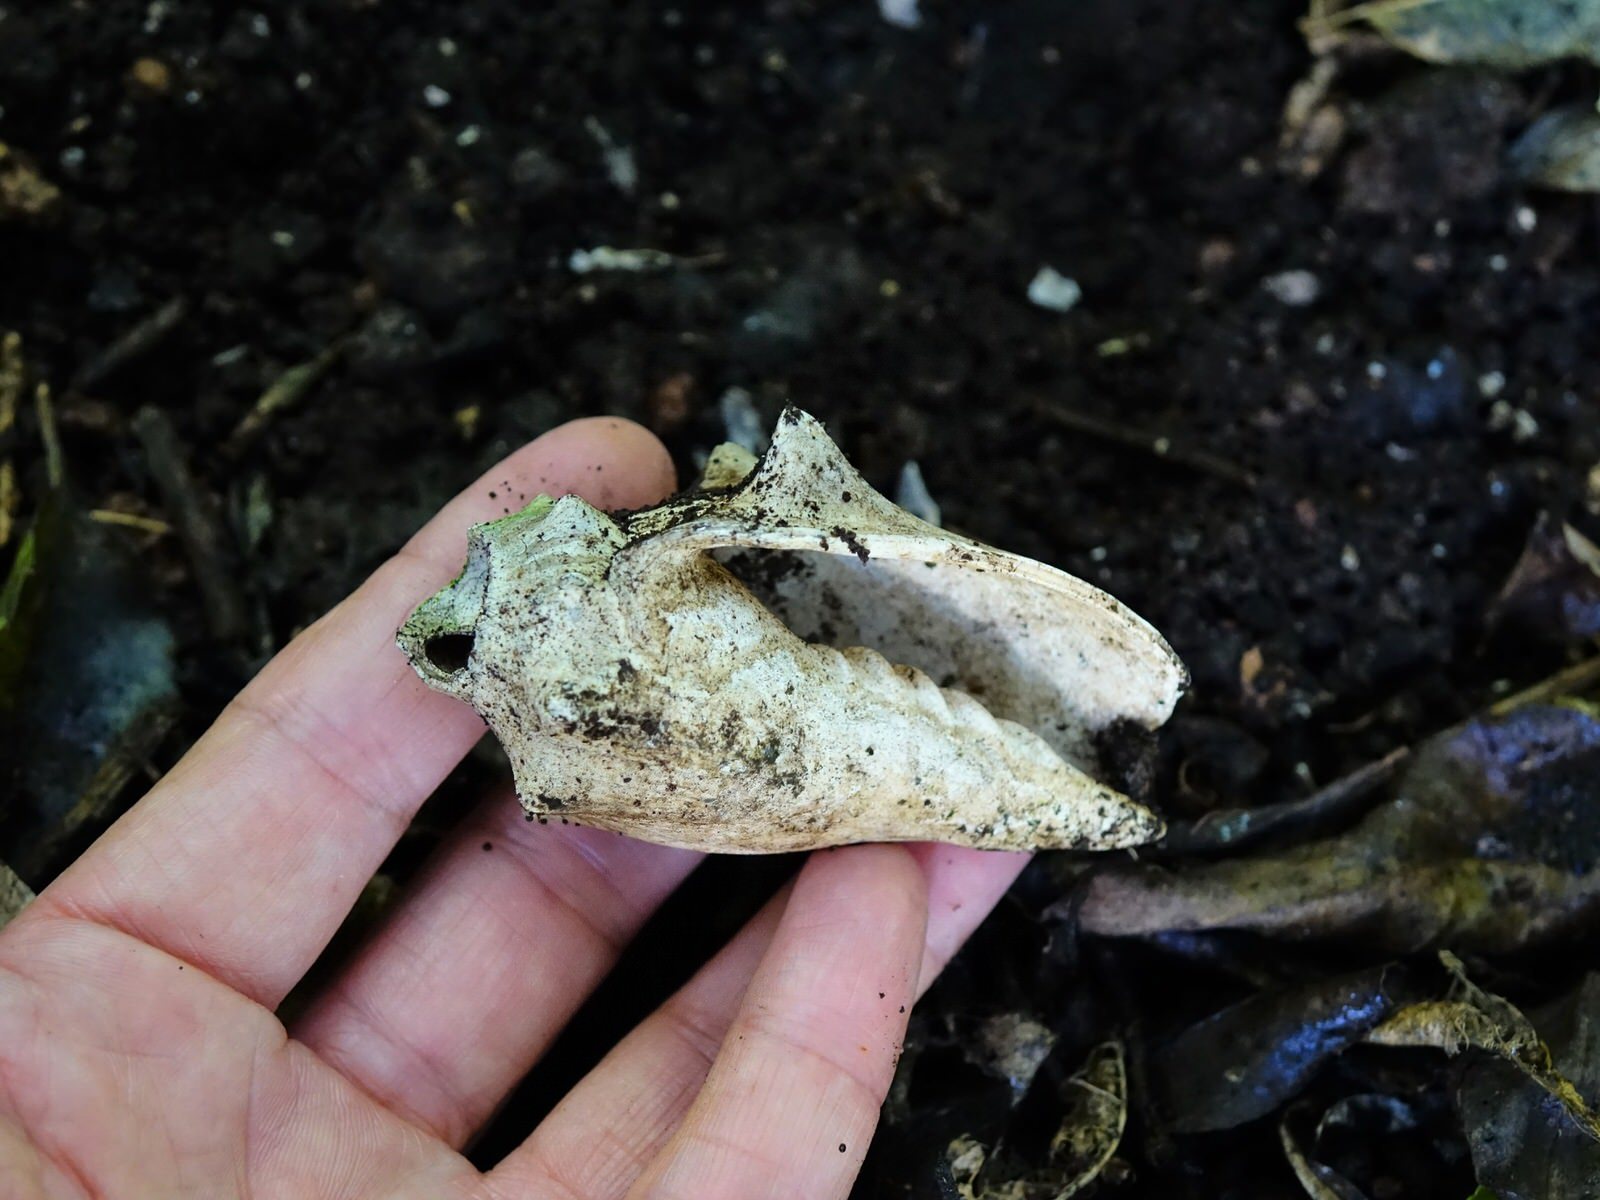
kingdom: Animalia
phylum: Mollusca
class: Gastropoda
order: Neogastropoda
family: Volutidae
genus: Alcithoe
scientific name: Alcithoe arabica
